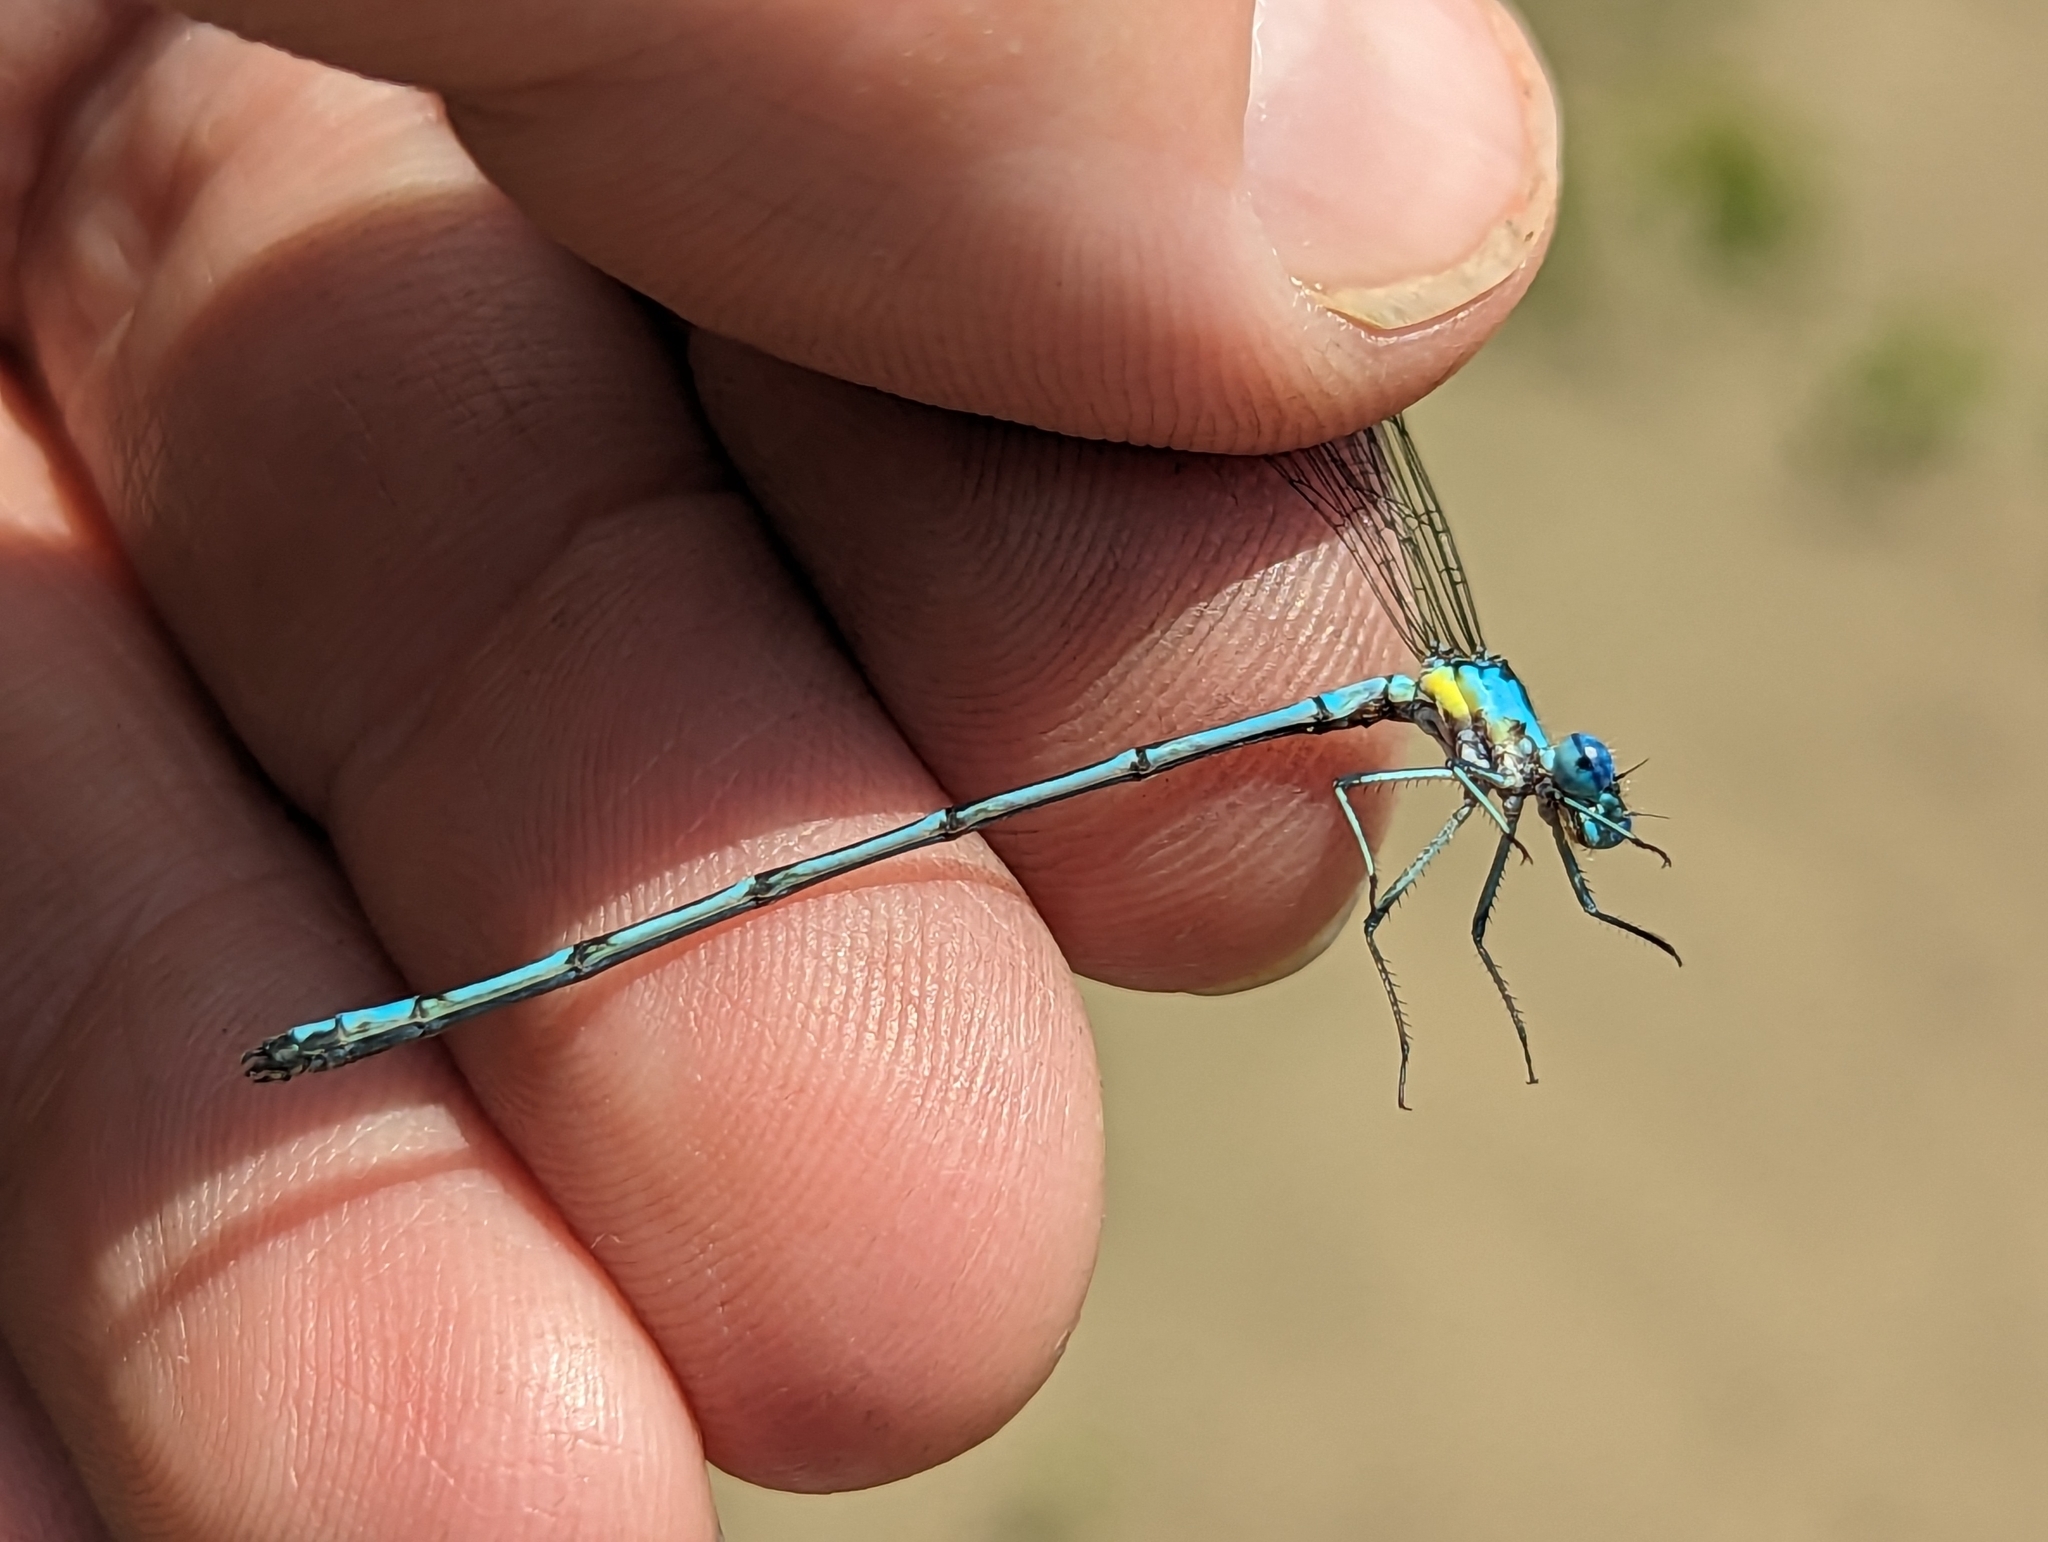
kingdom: Animalia
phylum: Arthropoda
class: Insecta
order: Odonata
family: Coenagrionidae
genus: Chromagrion
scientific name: Chromagrion conditum
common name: Aurora damsel
